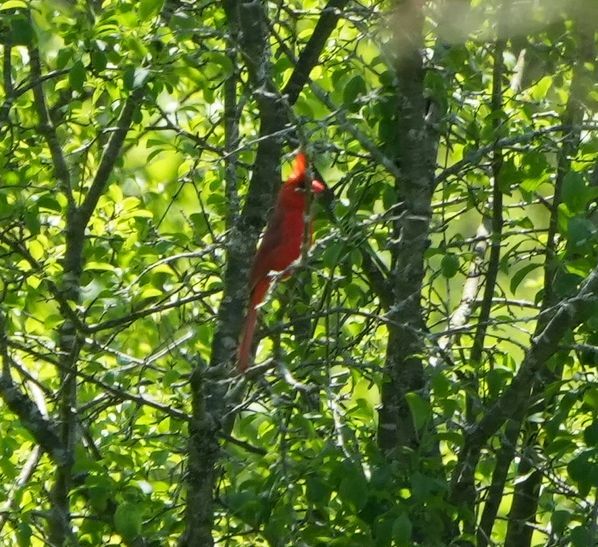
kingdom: Animalia
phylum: Chordata
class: Aves
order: Passeriformes
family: Cardinalidae
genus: Cardinalis
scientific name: Cardinalis cardinalis
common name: Northern cardinal
